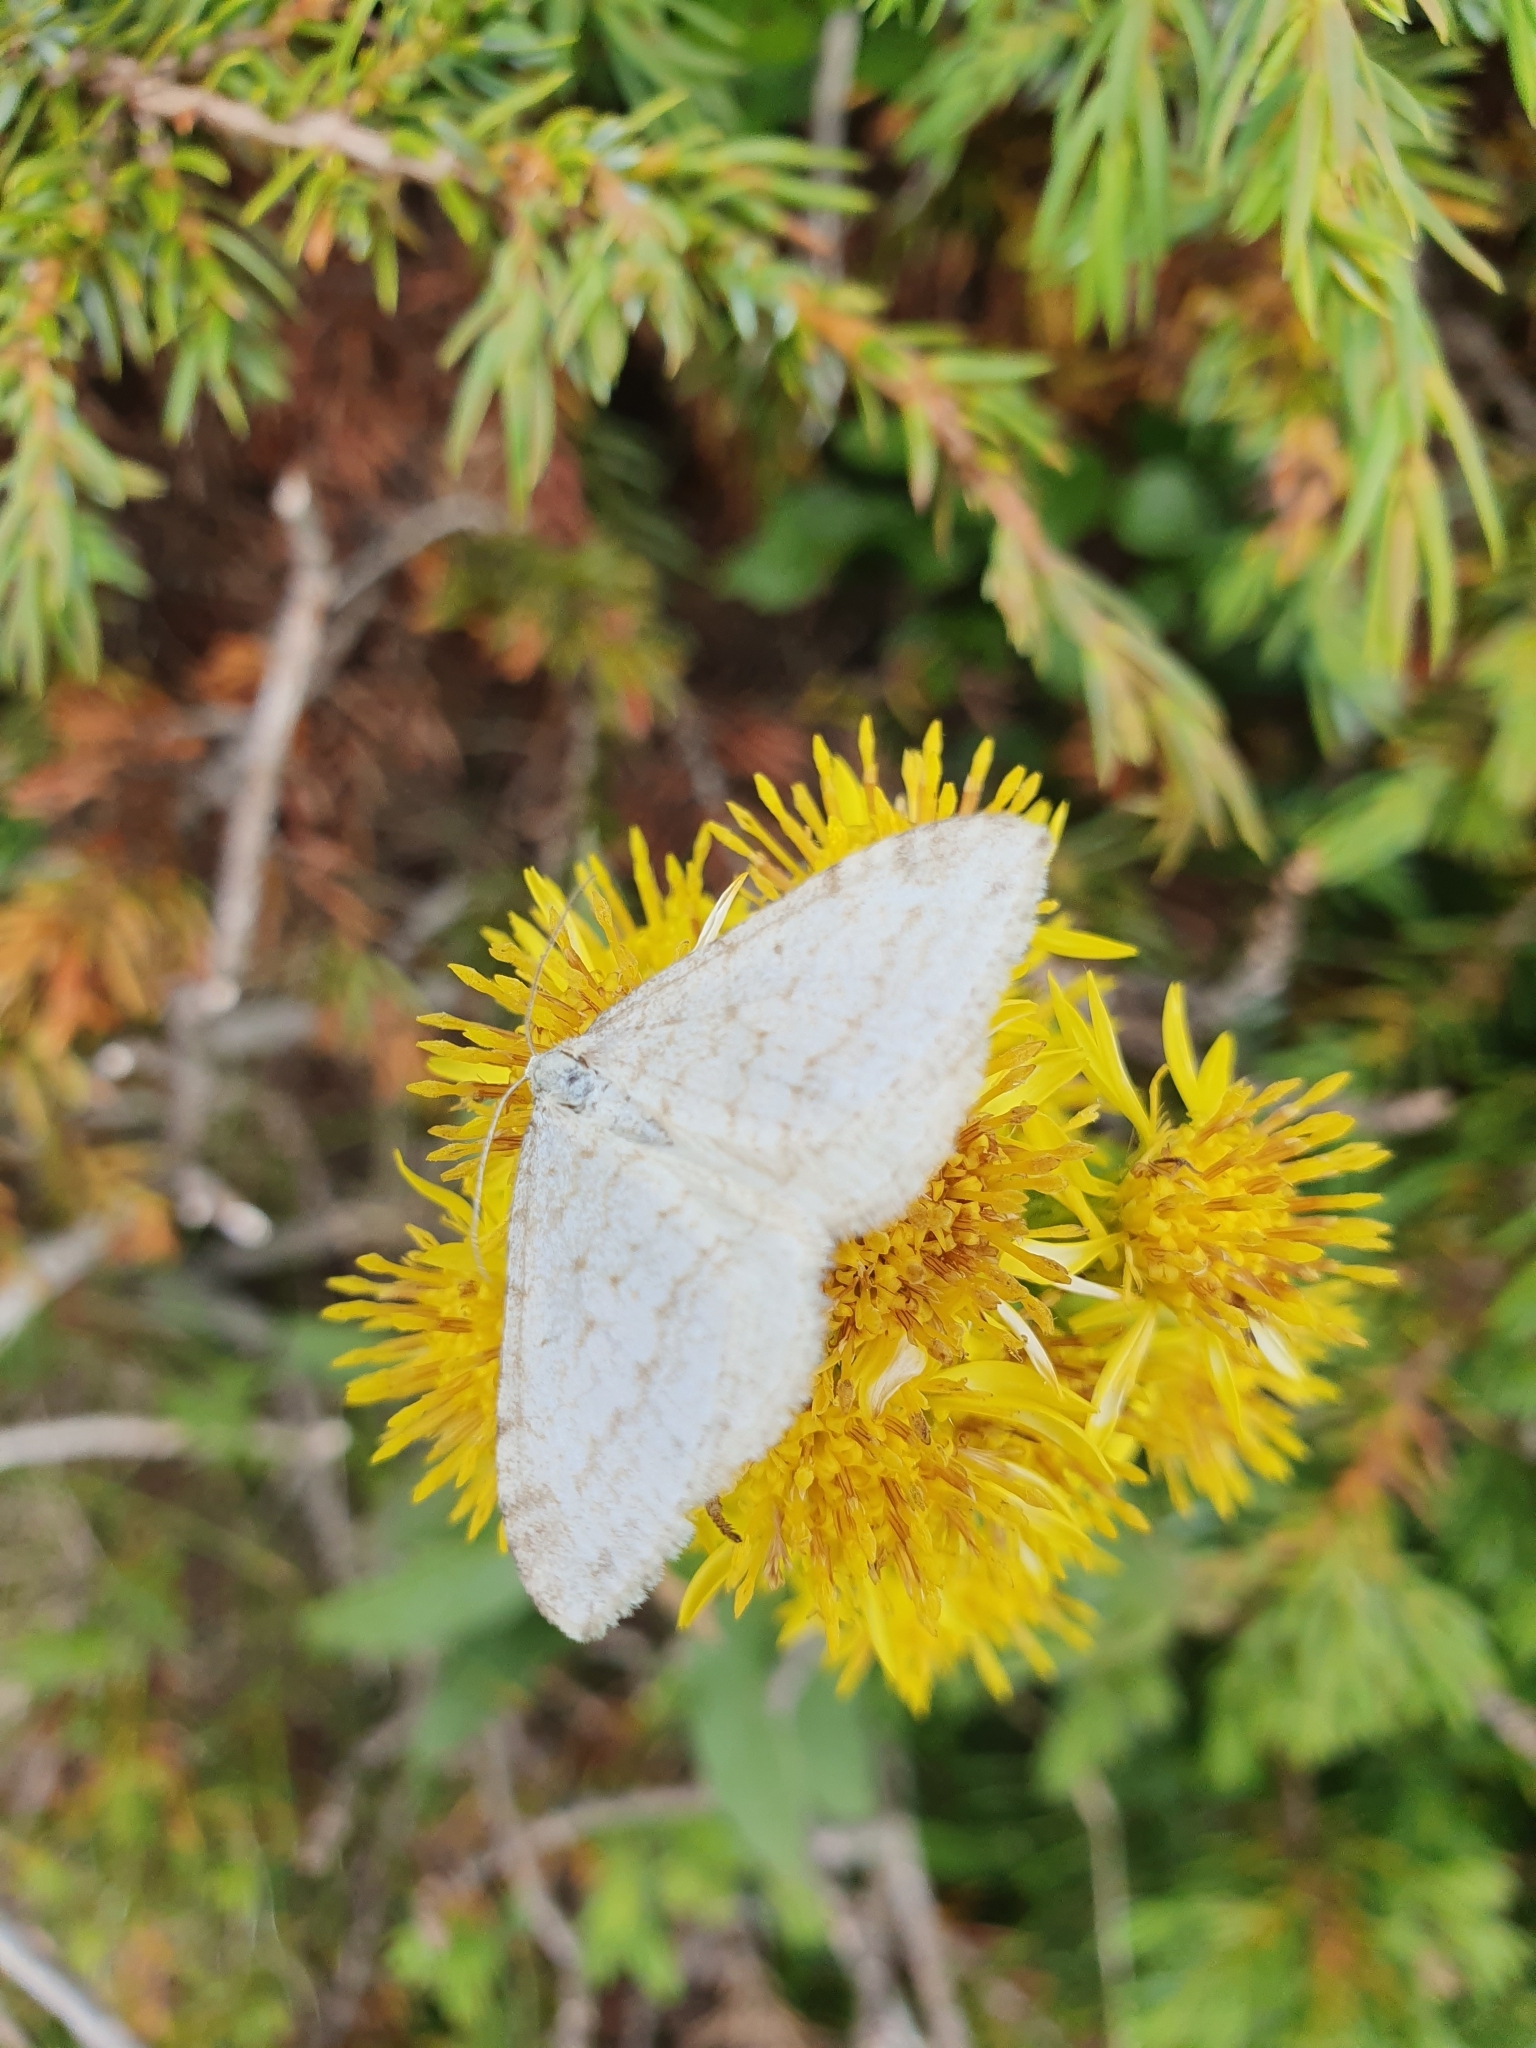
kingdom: Animalia
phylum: Arthropoda
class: Insecta
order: Lepidoptera
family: Geometridae
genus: Perizoma
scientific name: Perizoma verberata
